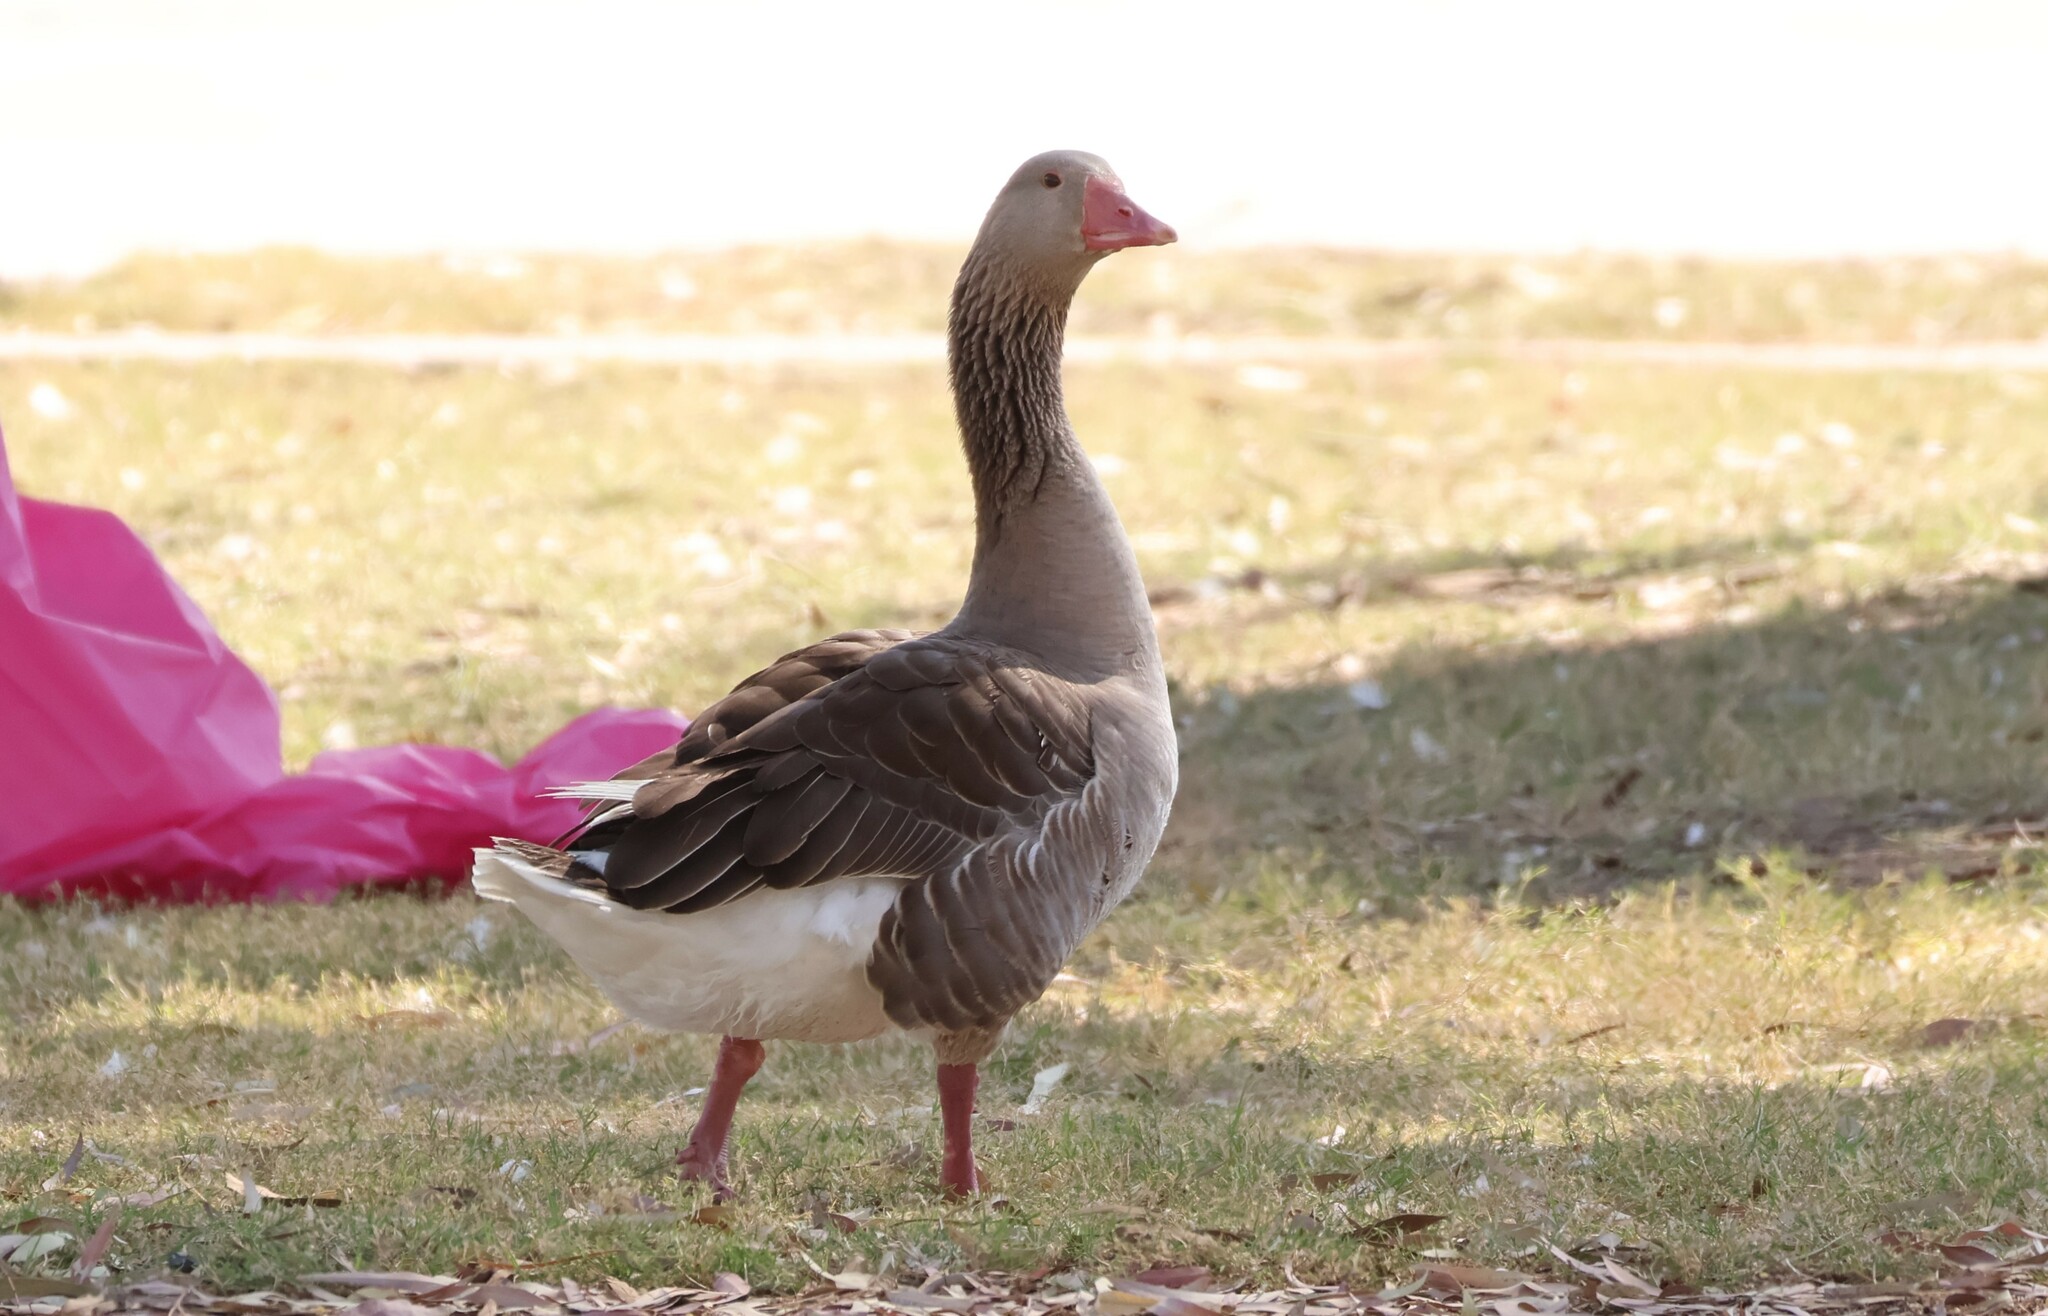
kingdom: Animalia
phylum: Chordata
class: Aves
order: Anseriformes
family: Anatidae
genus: Anser
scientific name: Anser anser
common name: Greylag goose
